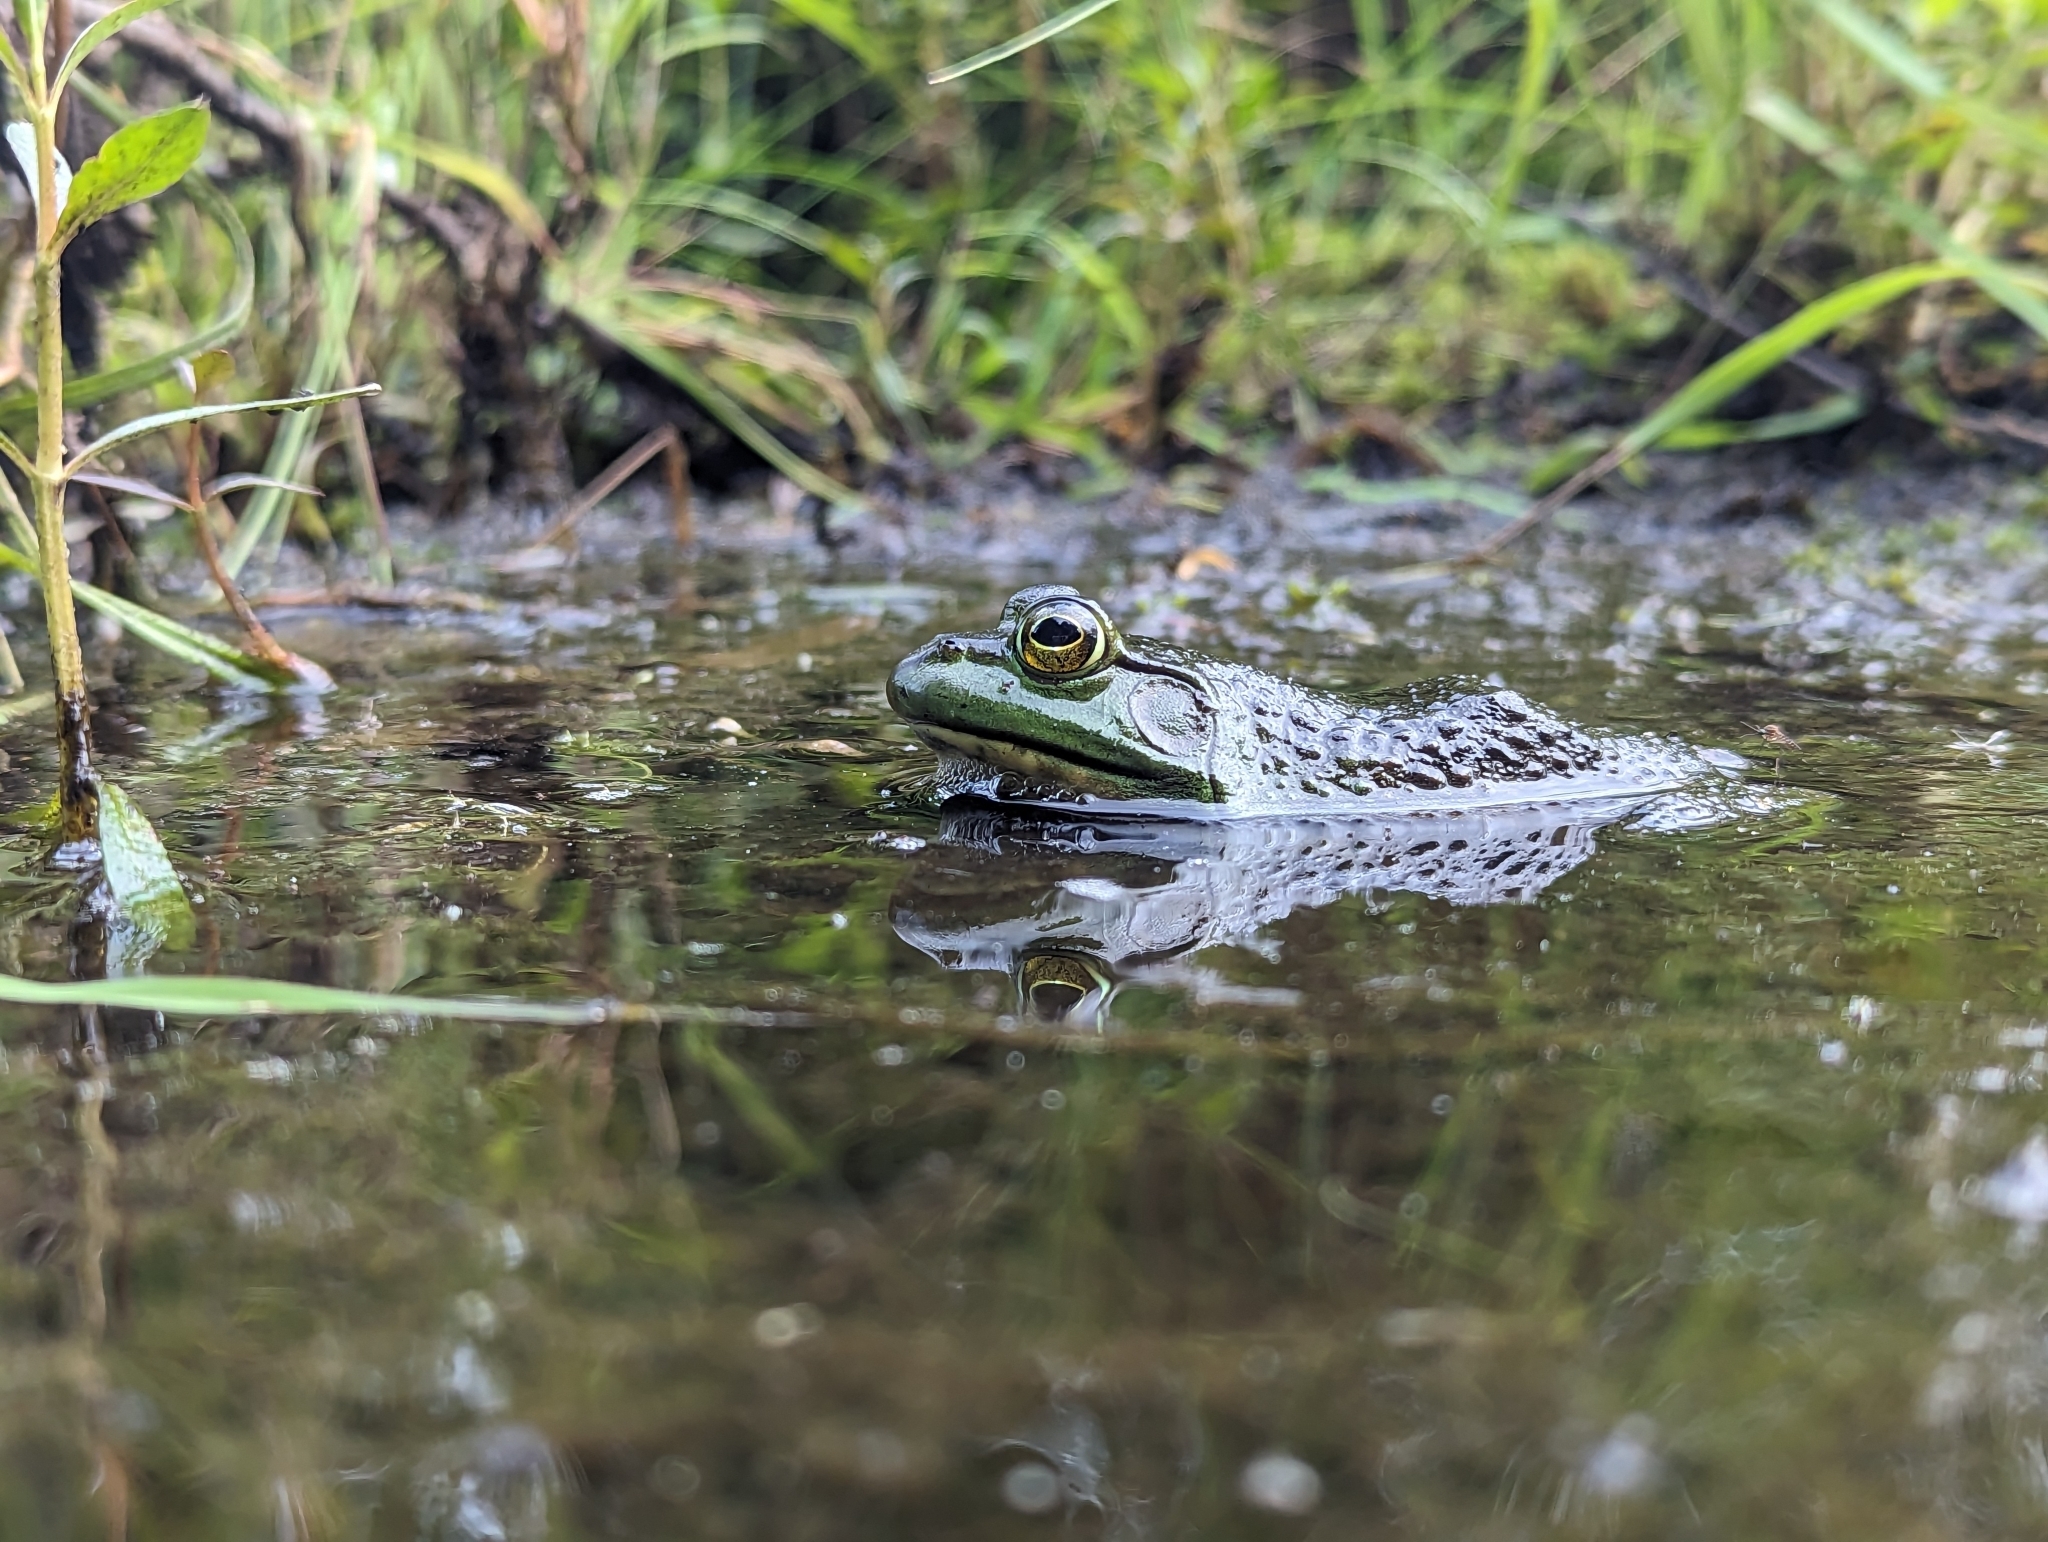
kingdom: Animalia
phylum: Chordata
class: Amphibia
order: Anura
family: Ranidae
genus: Lithobates
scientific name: Lithobates catesbeianus
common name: American bullfrog
